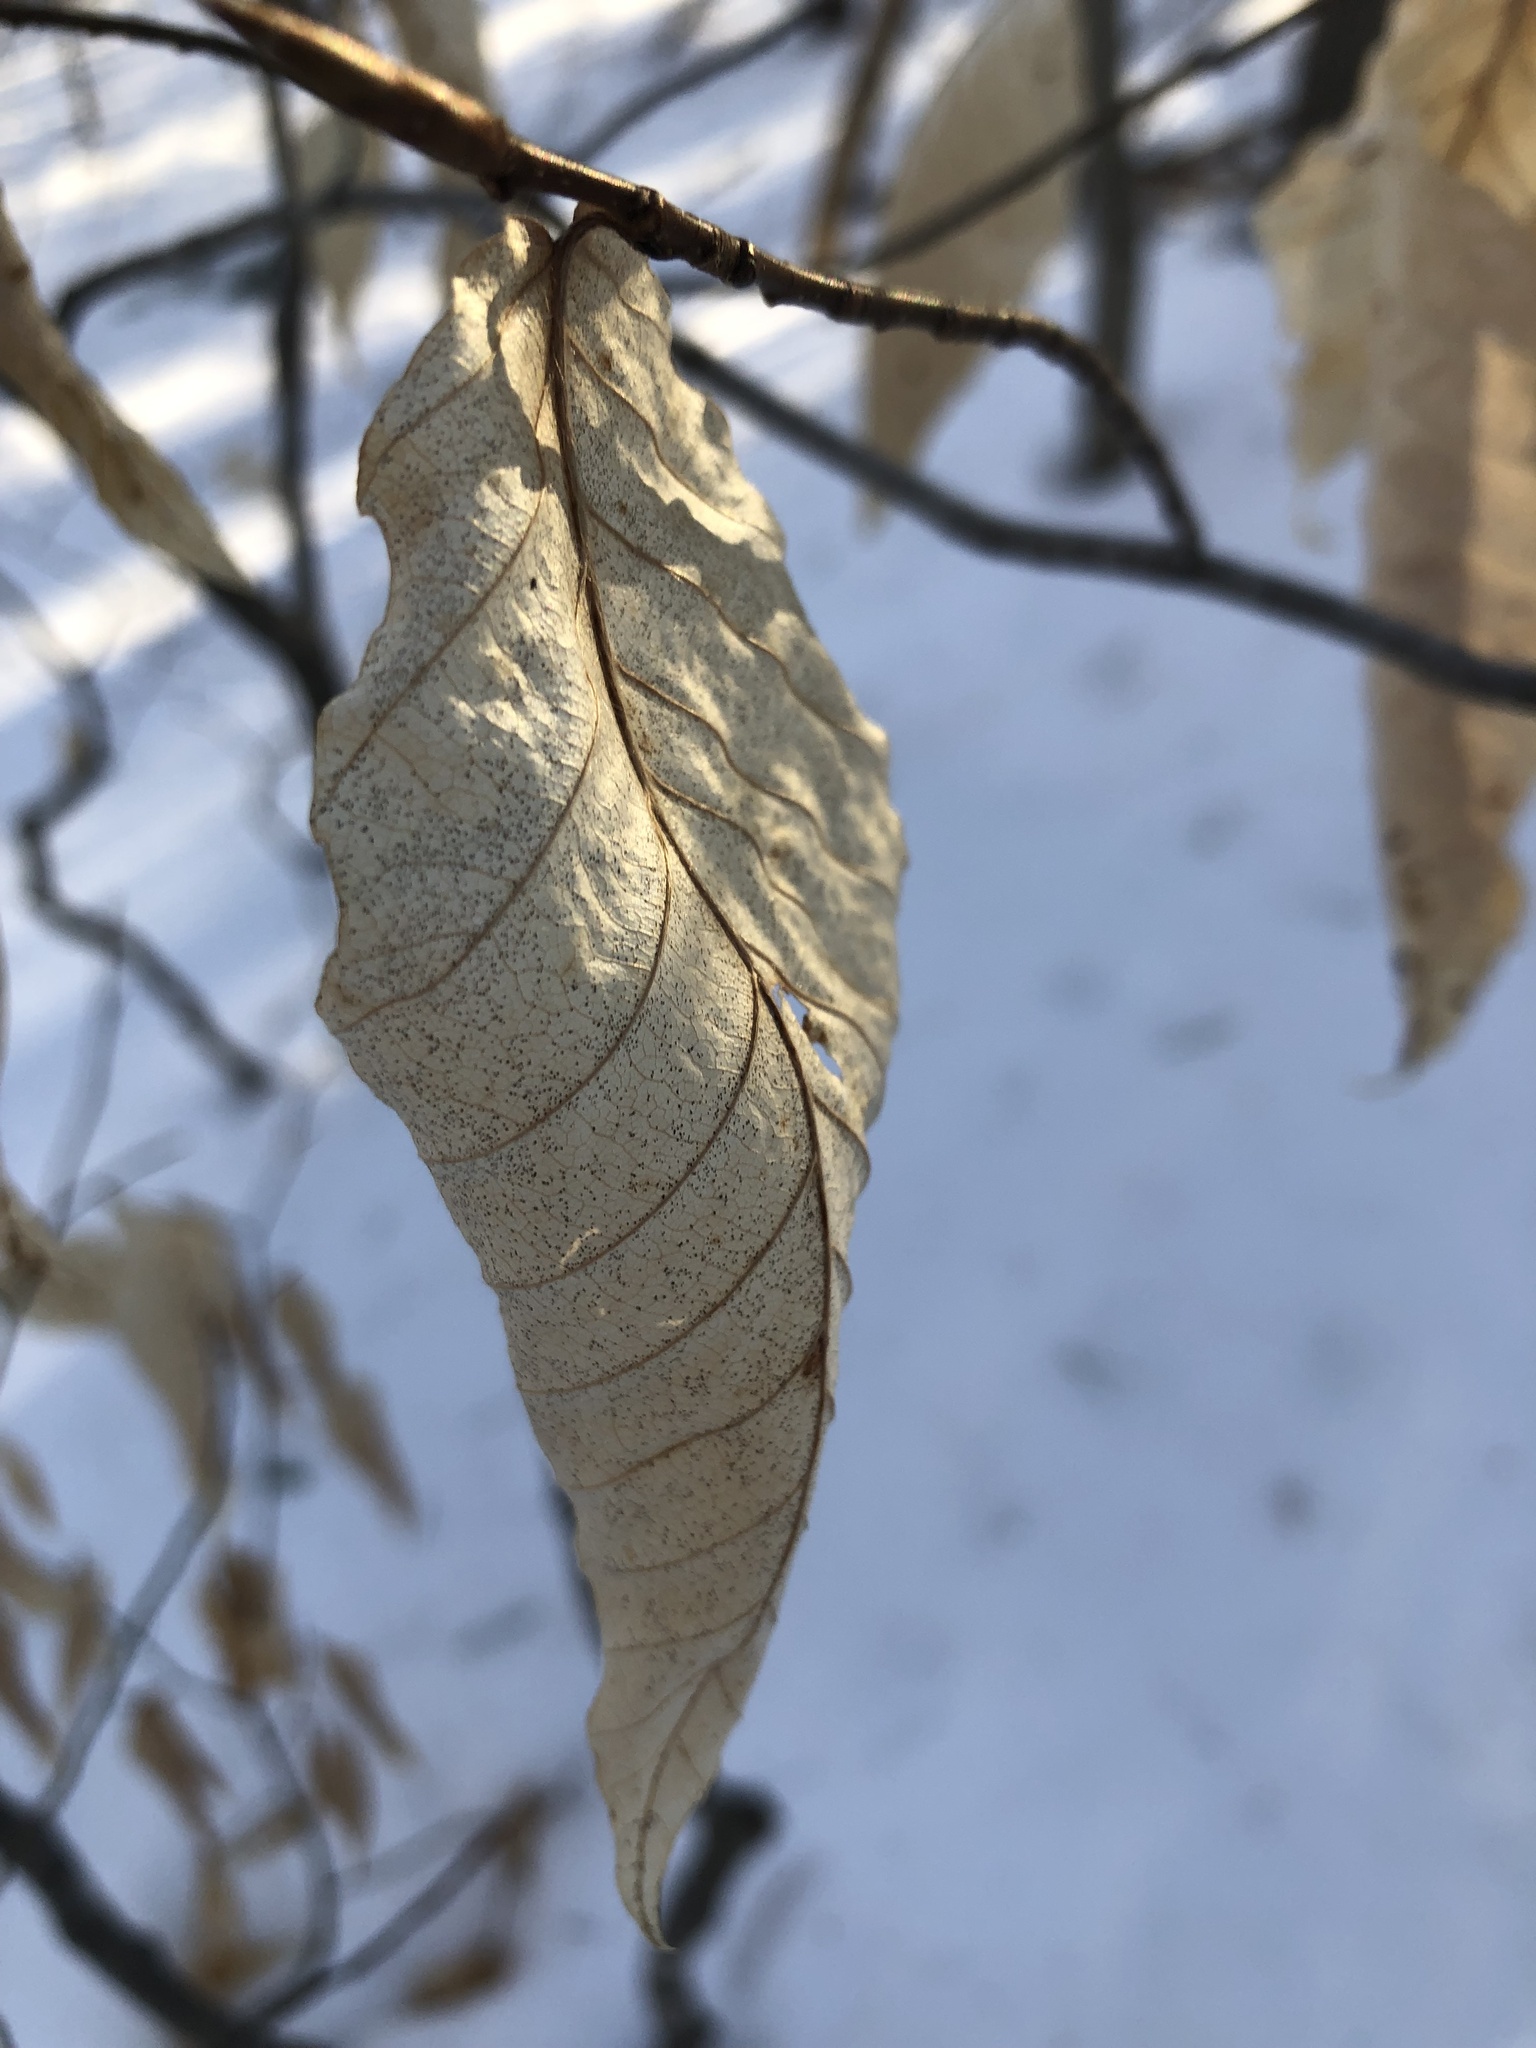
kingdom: Plantae
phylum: Tracheophyta
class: Magnoliopsida
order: Fagales
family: Fagaceae
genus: Fagus
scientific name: Fagus grandifolia
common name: American beech
